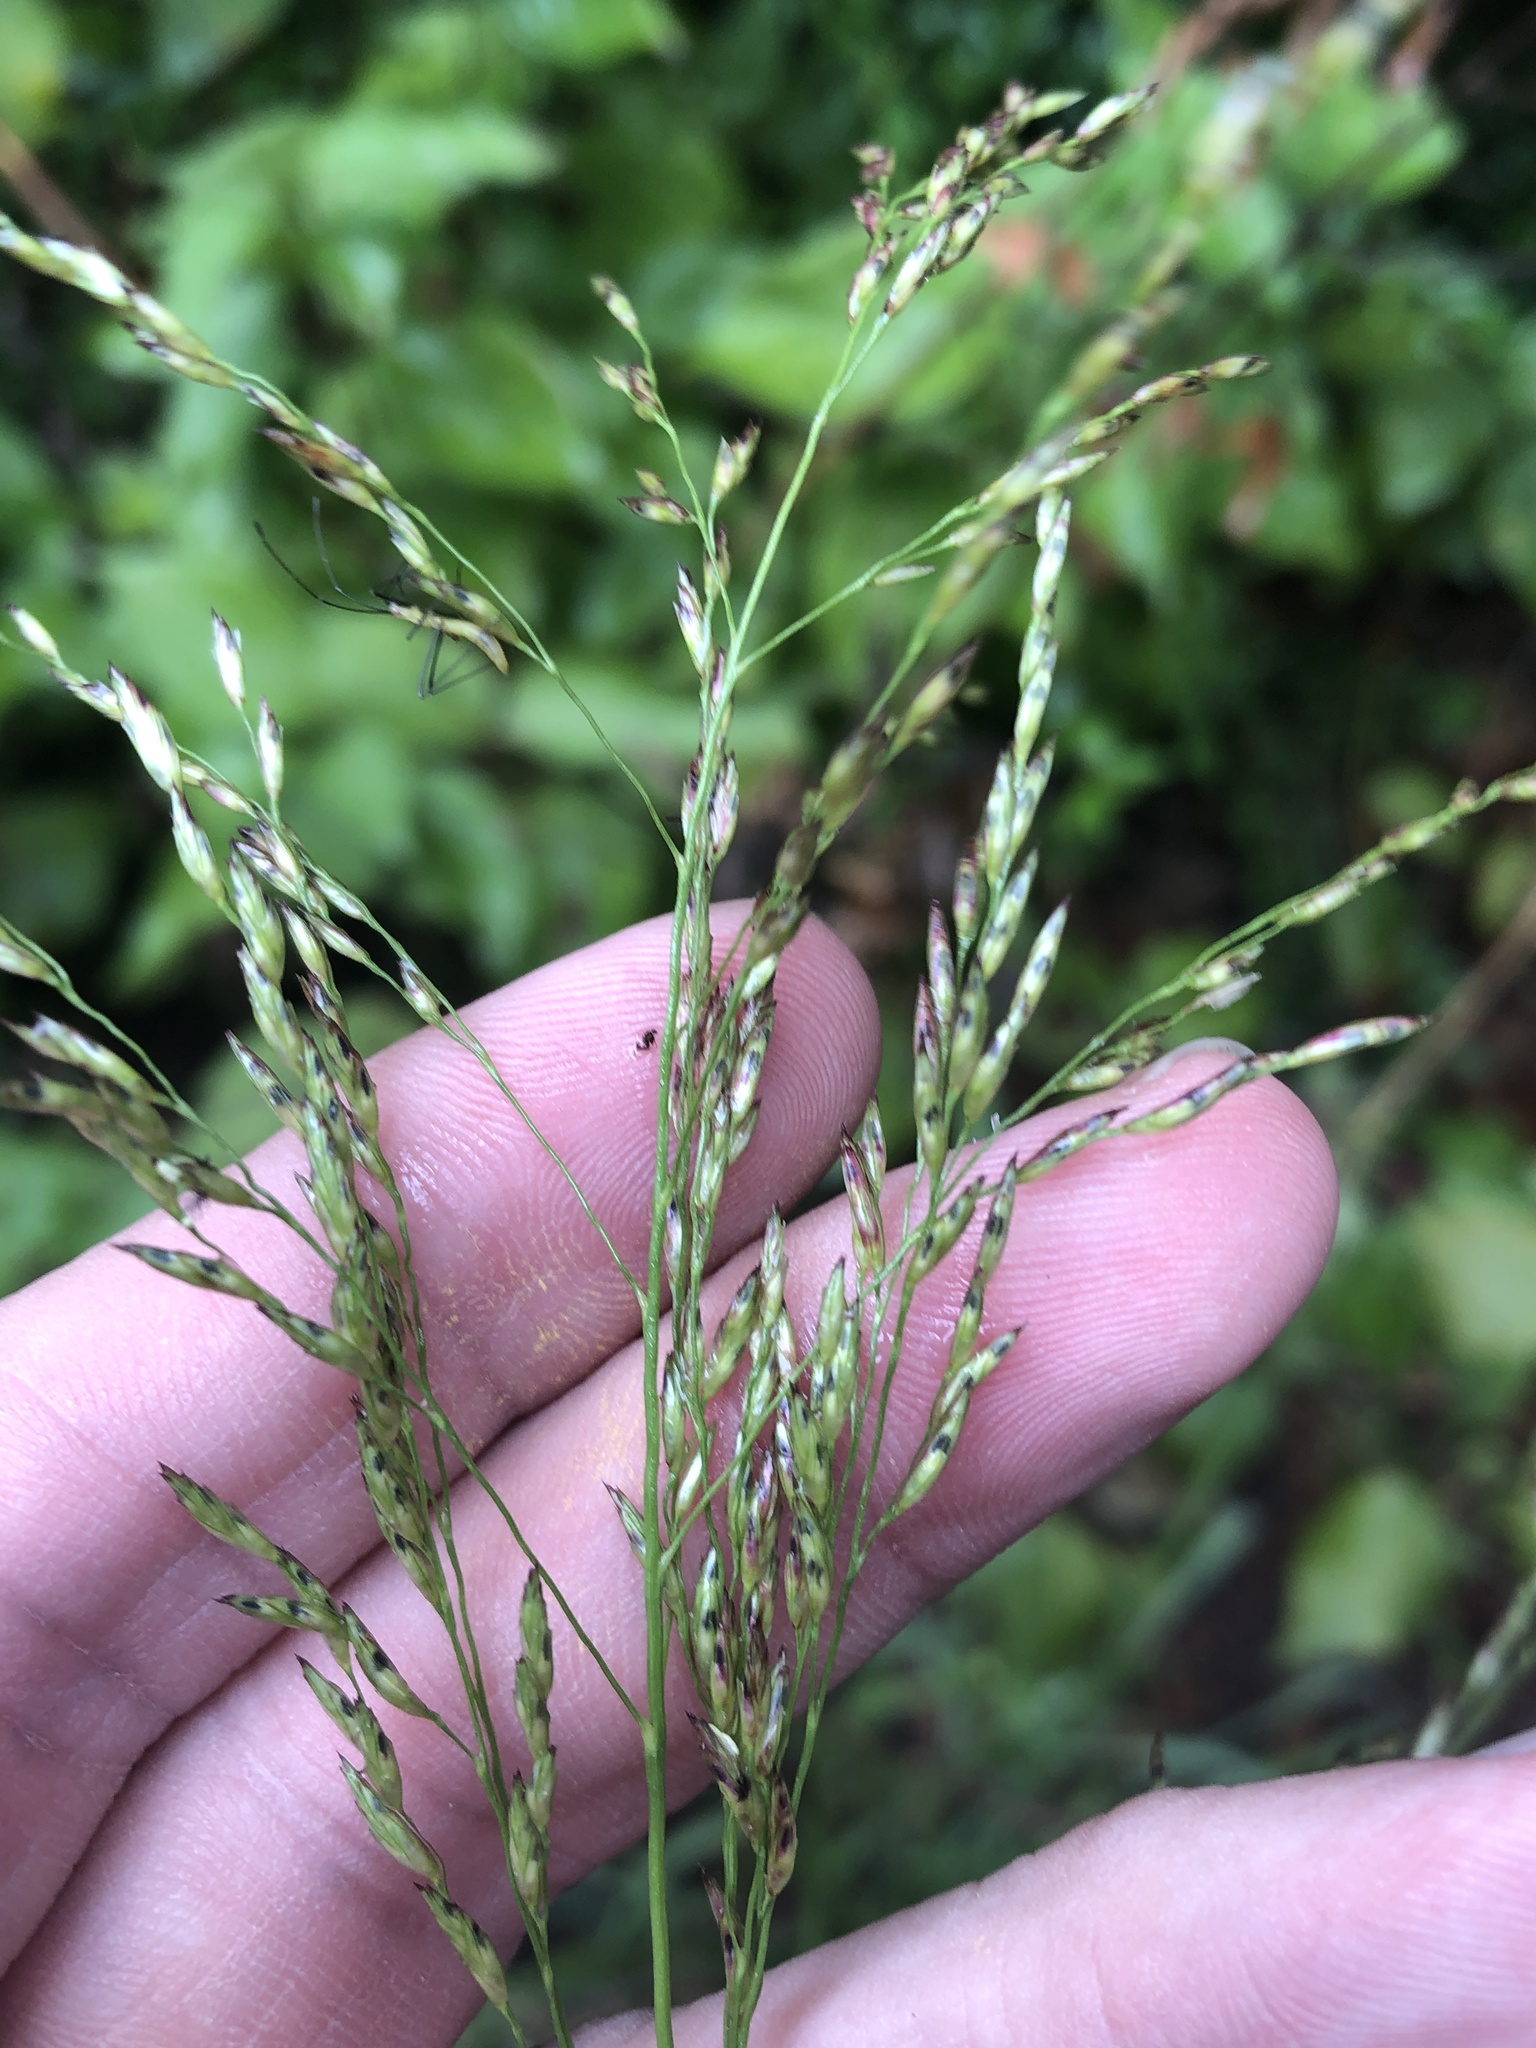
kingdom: Plantae
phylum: Tracheophyta
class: Liliopsida
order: Poales
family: Poaceae
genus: Tridens
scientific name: Tridens flavus
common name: Purpletop
